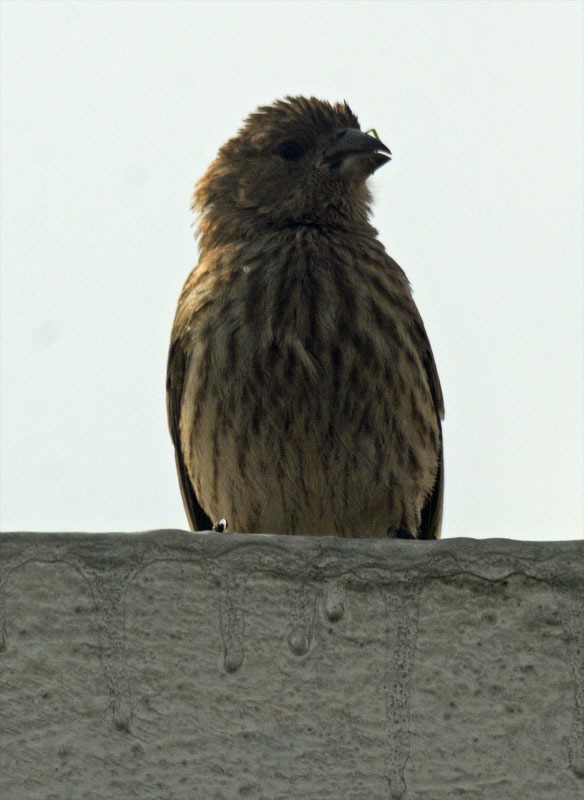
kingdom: Animalia
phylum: Chordata
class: Aves
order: Passeriformes
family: Fringillidae
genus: Haemorhous
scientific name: Haemorhous mexicanus
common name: House finch
